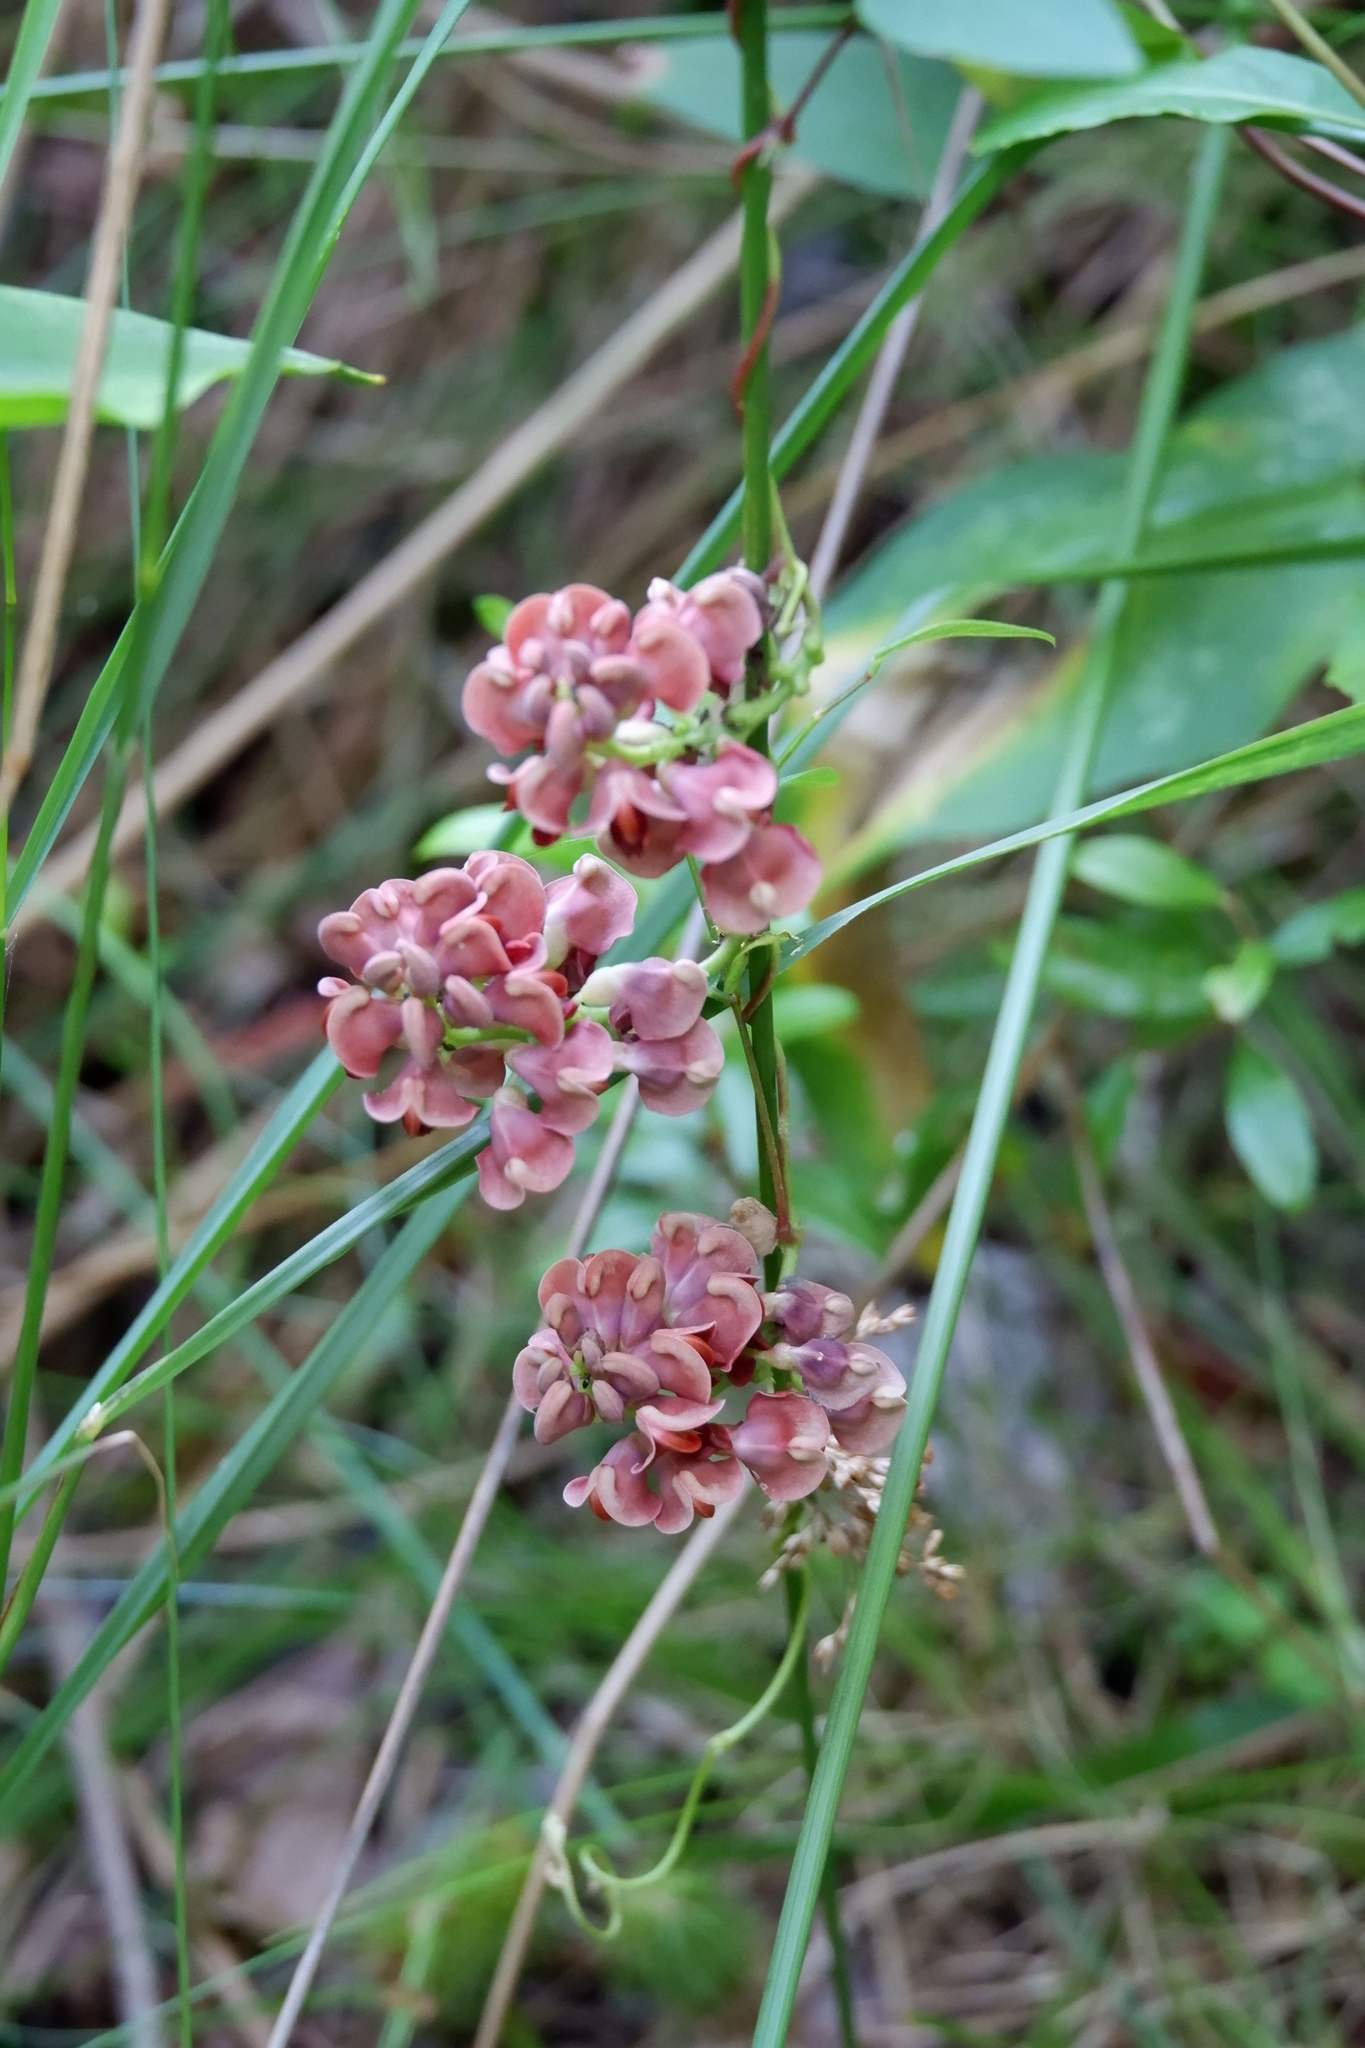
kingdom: Plantae
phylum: Tracheophyta
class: Magnoliopsida
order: Fabales
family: Fabaceae
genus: Apios
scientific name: Apios americana
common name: American potato-bean
